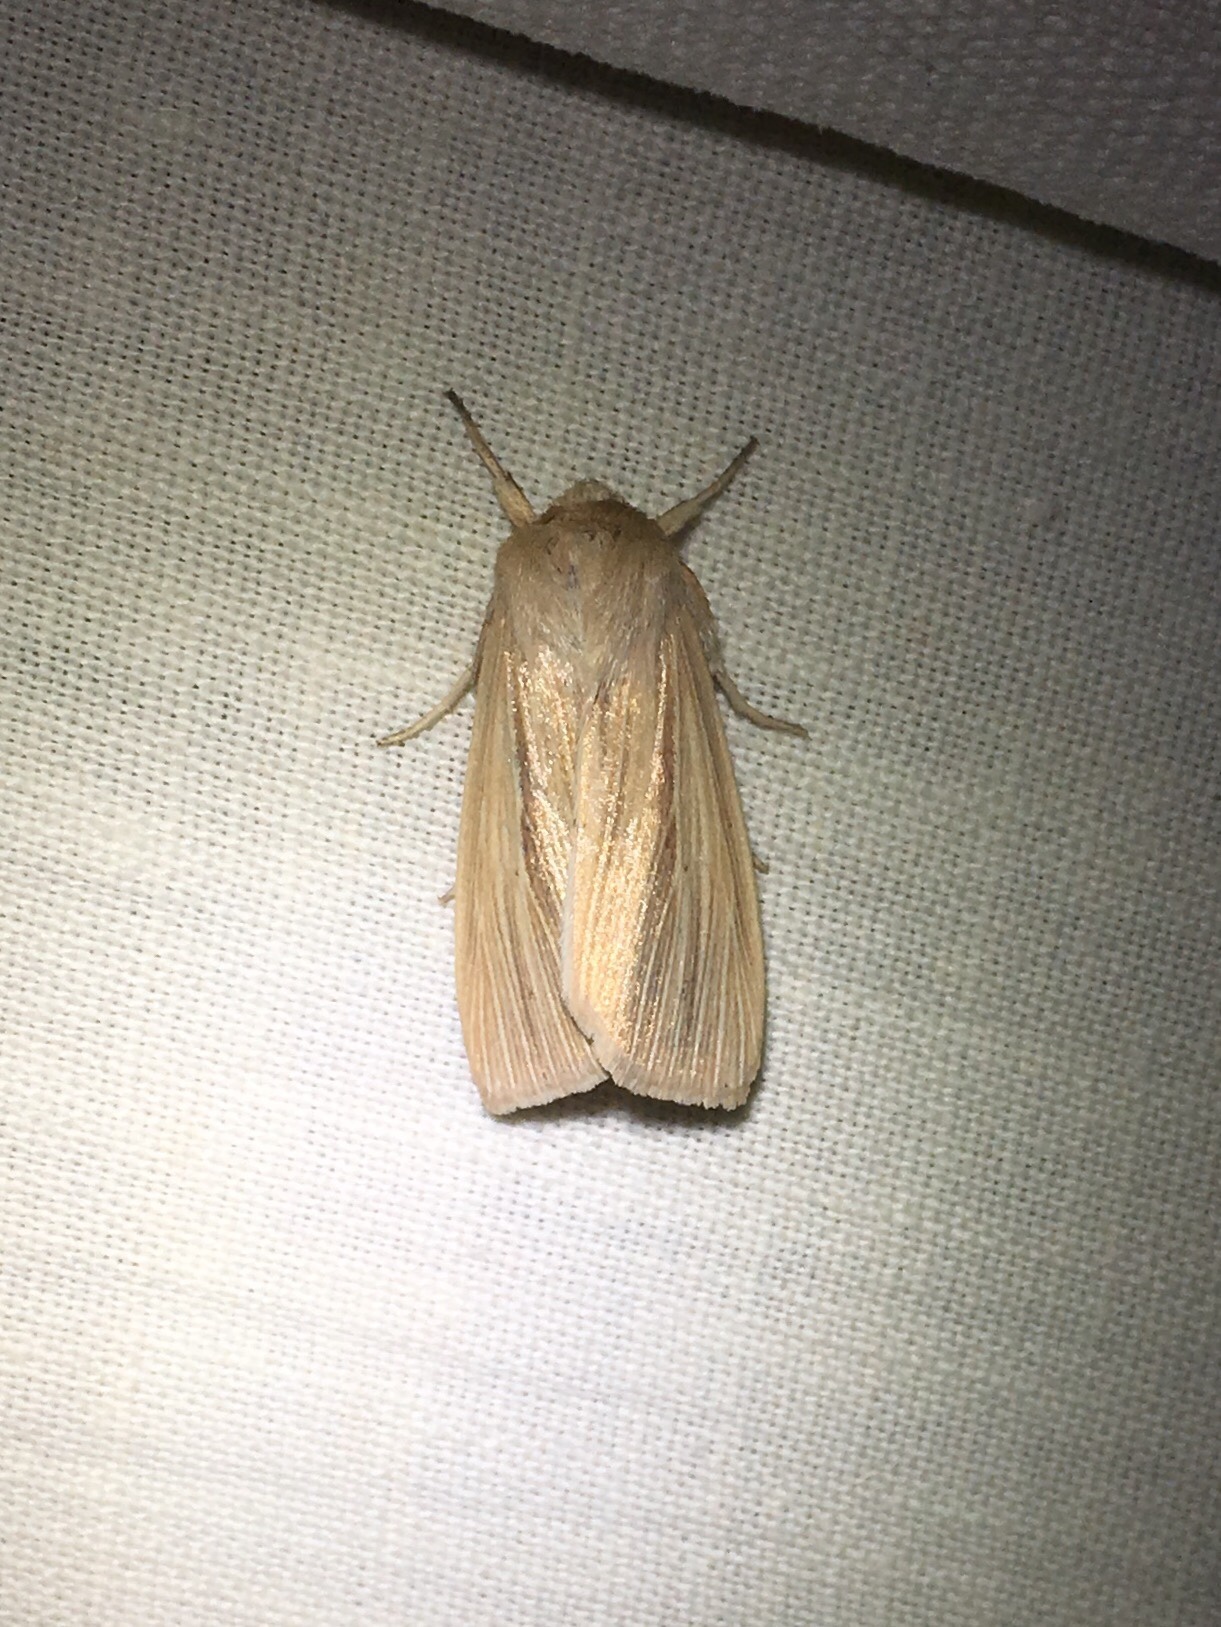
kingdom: Animalia
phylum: Arthropoda
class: Insecta
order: Lepidoptera
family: Noctuidae
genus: Mythimna
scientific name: Mythimna oxygala
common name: Lesser wainscot
